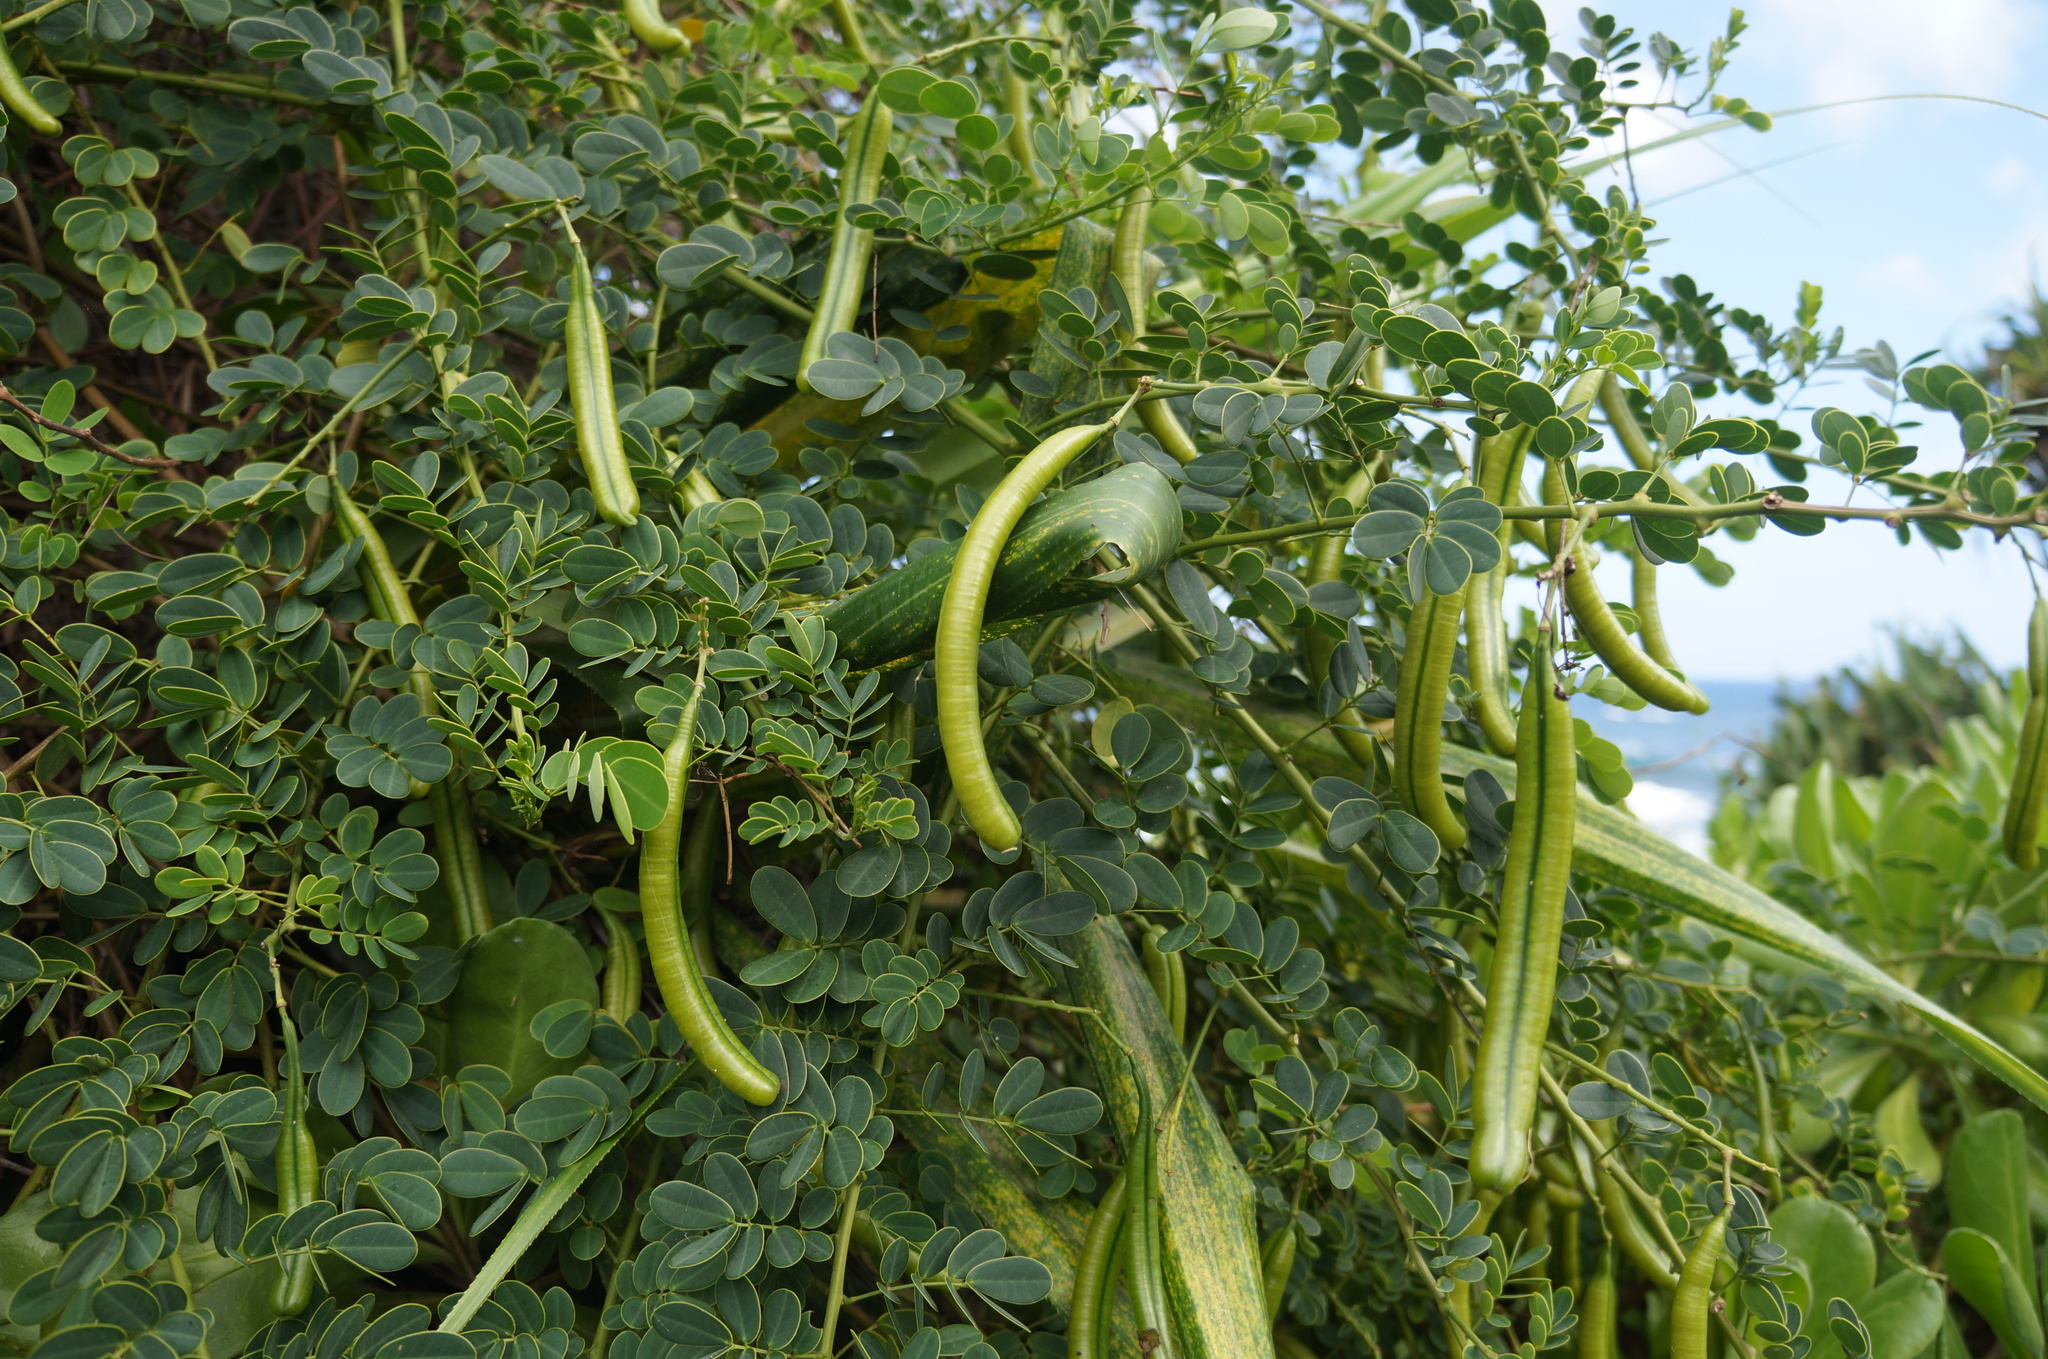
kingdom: Plantae
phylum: Tracheophyta
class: Magnoliopsida
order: Fabales
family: Fabaceae
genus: Senna
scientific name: Senna pendula
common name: Easter cassia
